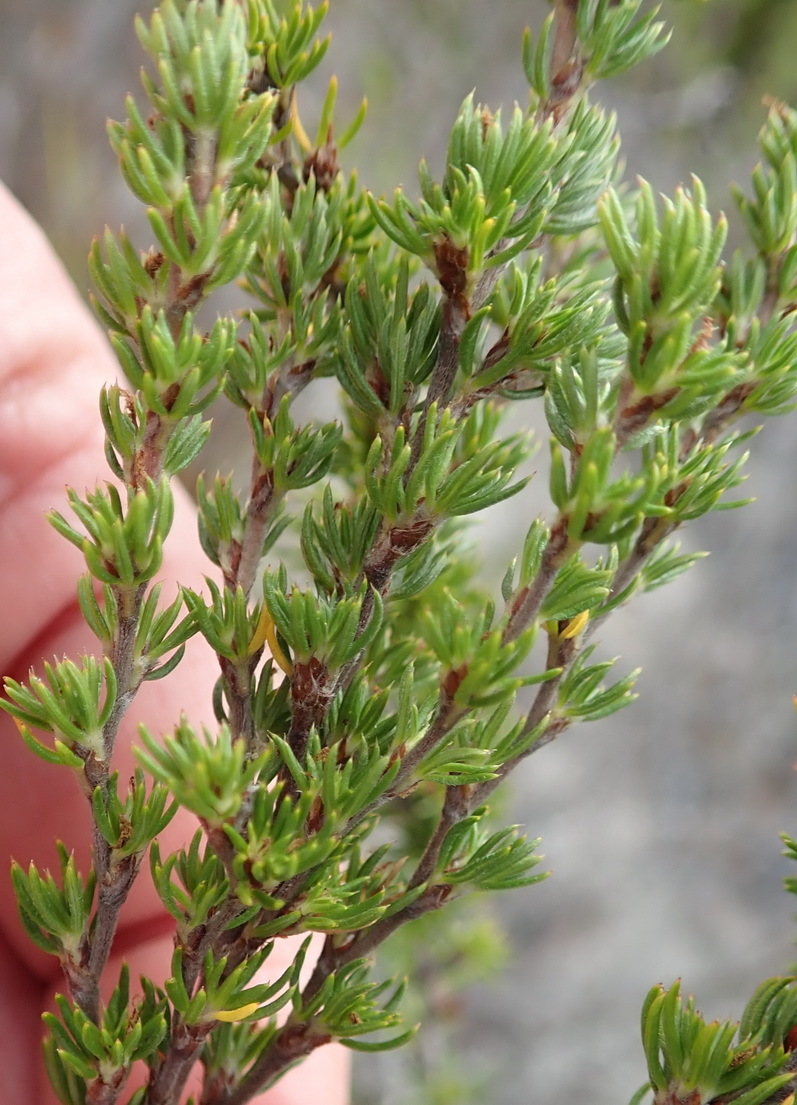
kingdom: Plantae
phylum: Tracheophyta
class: Magnoliopsida
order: Rosales
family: Rosaceae
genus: Cliffortia
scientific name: Cliffortia stricta
